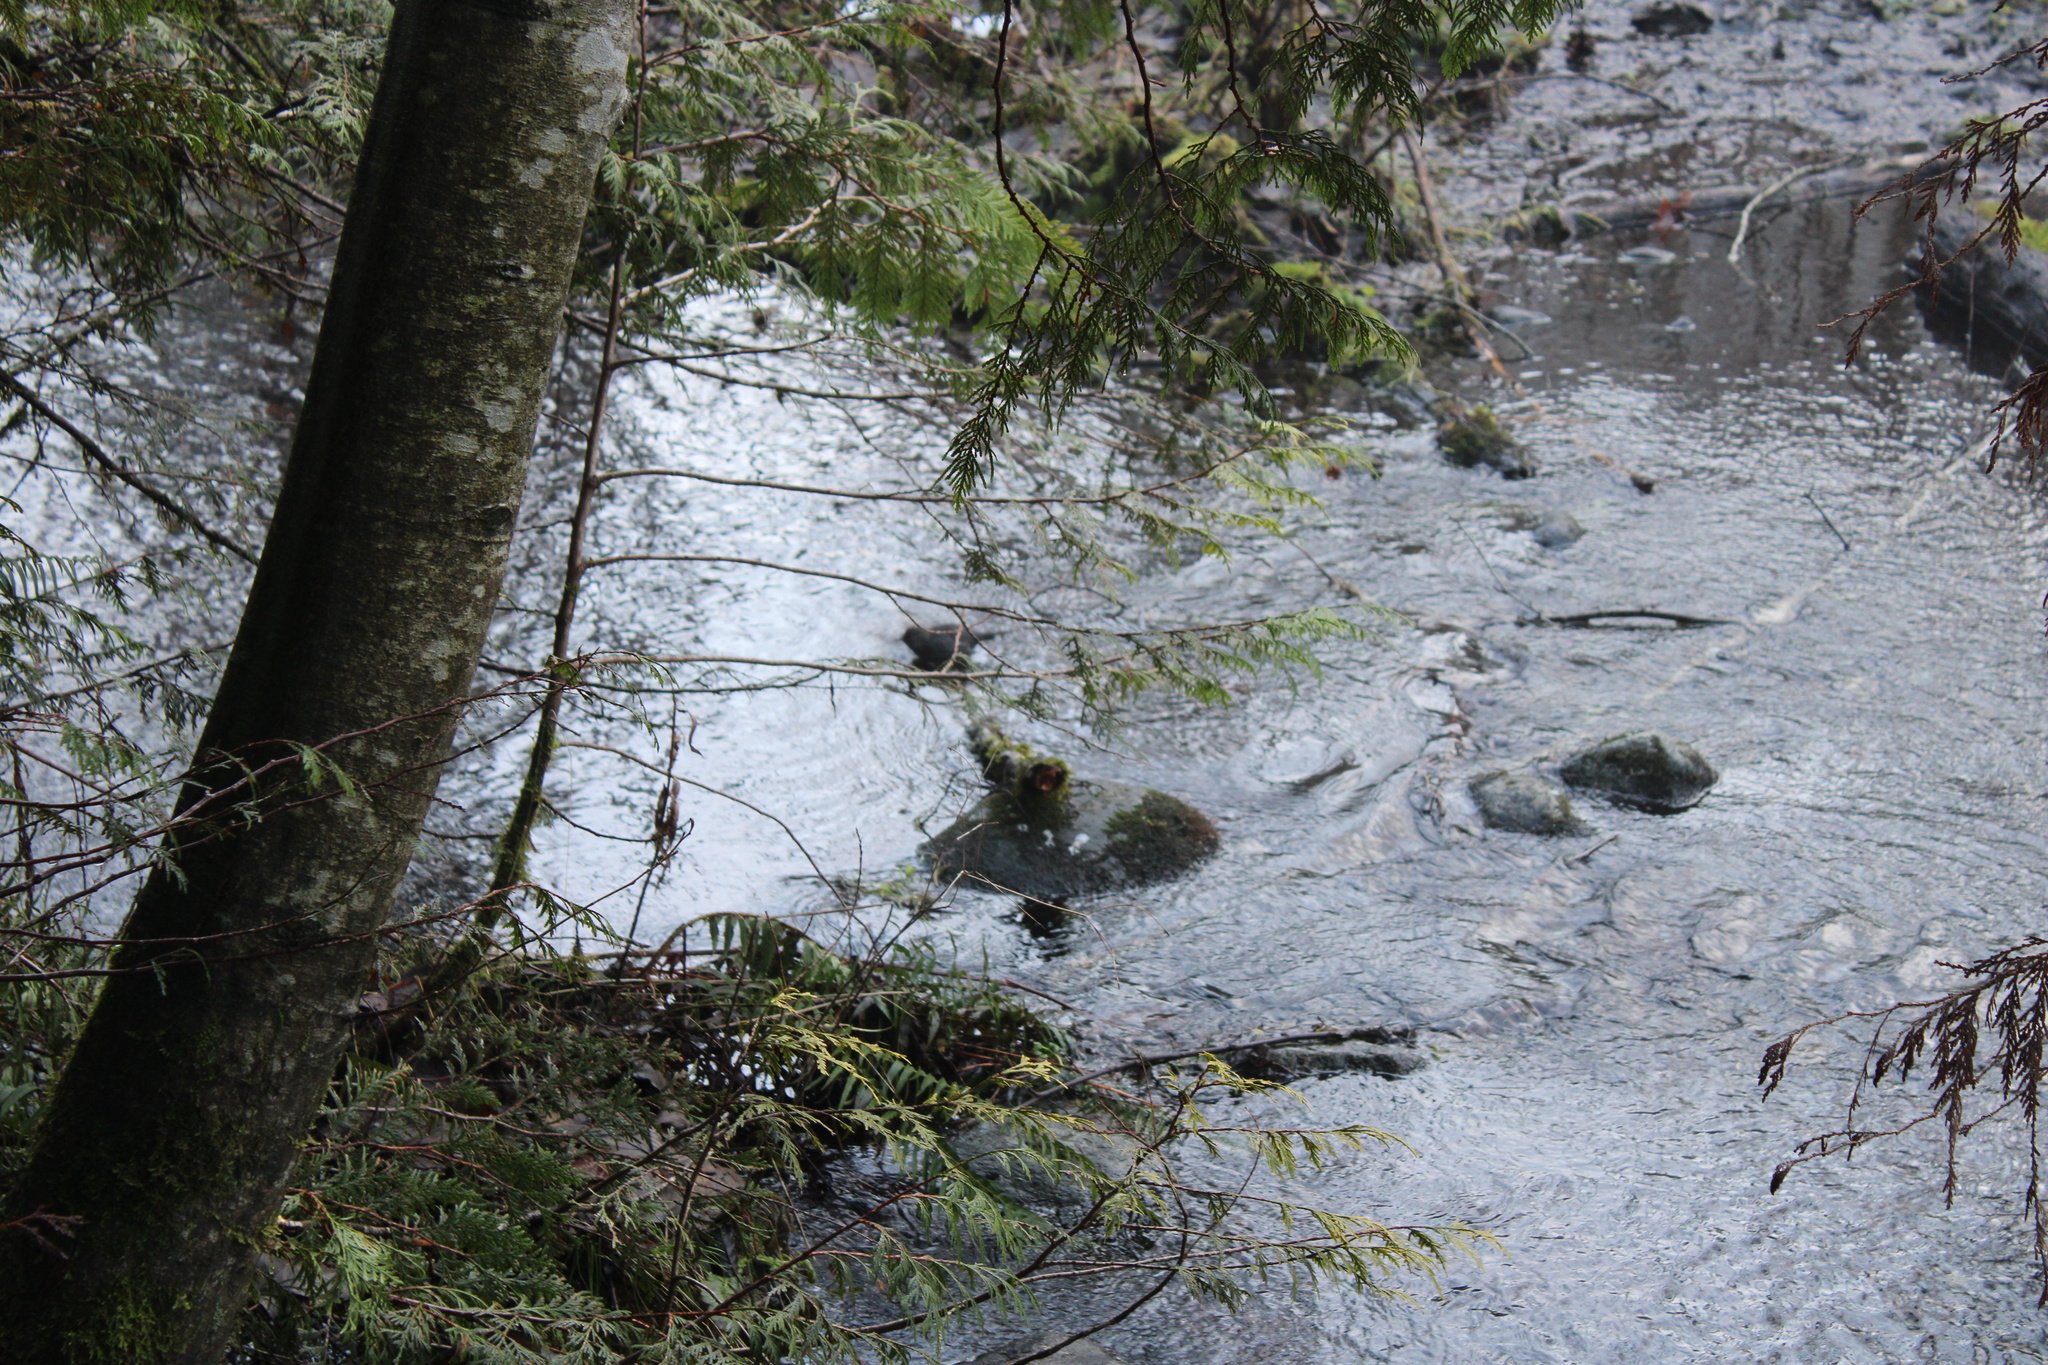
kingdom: Animalia
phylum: Chordata
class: Aves
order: Passeriformes
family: Cinclidae
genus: Cinclus
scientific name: Cinclus mexicanus
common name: American dipper
